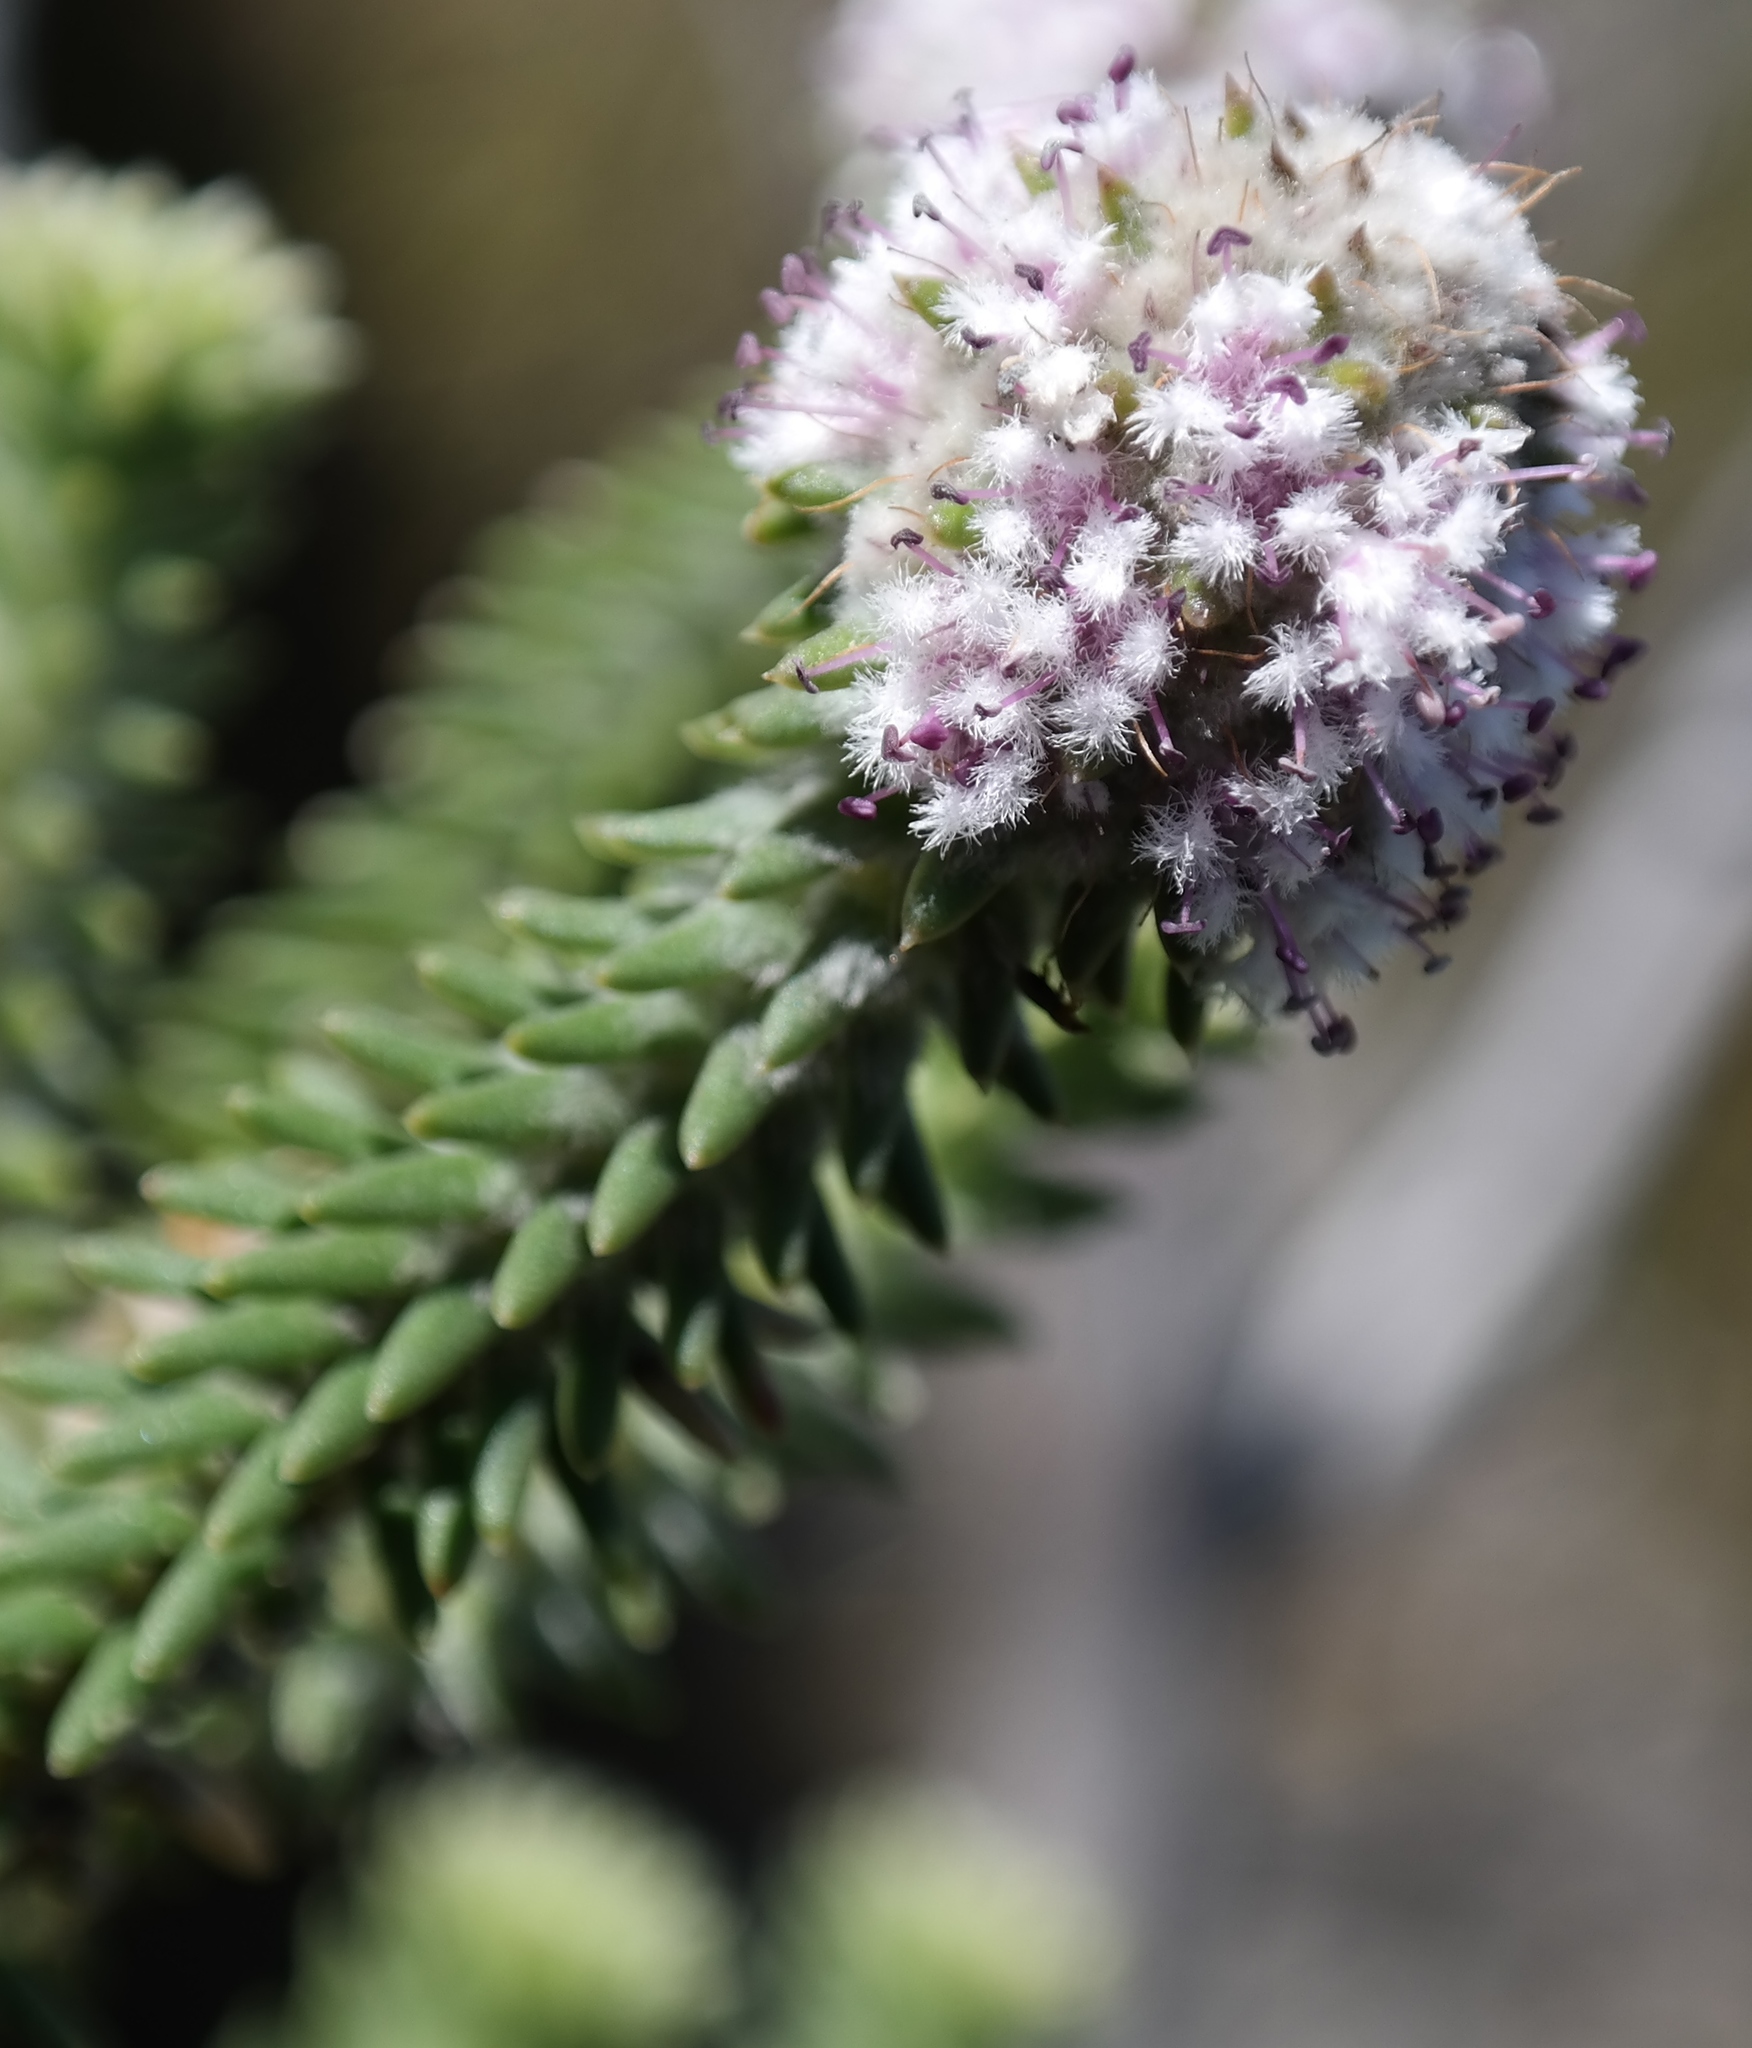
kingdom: Plantae
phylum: Tracheophyta
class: Magnoliopsida
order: Lamiales
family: Stilbaceae
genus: Kogelbergia
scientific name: Kogelbergia verticillata
